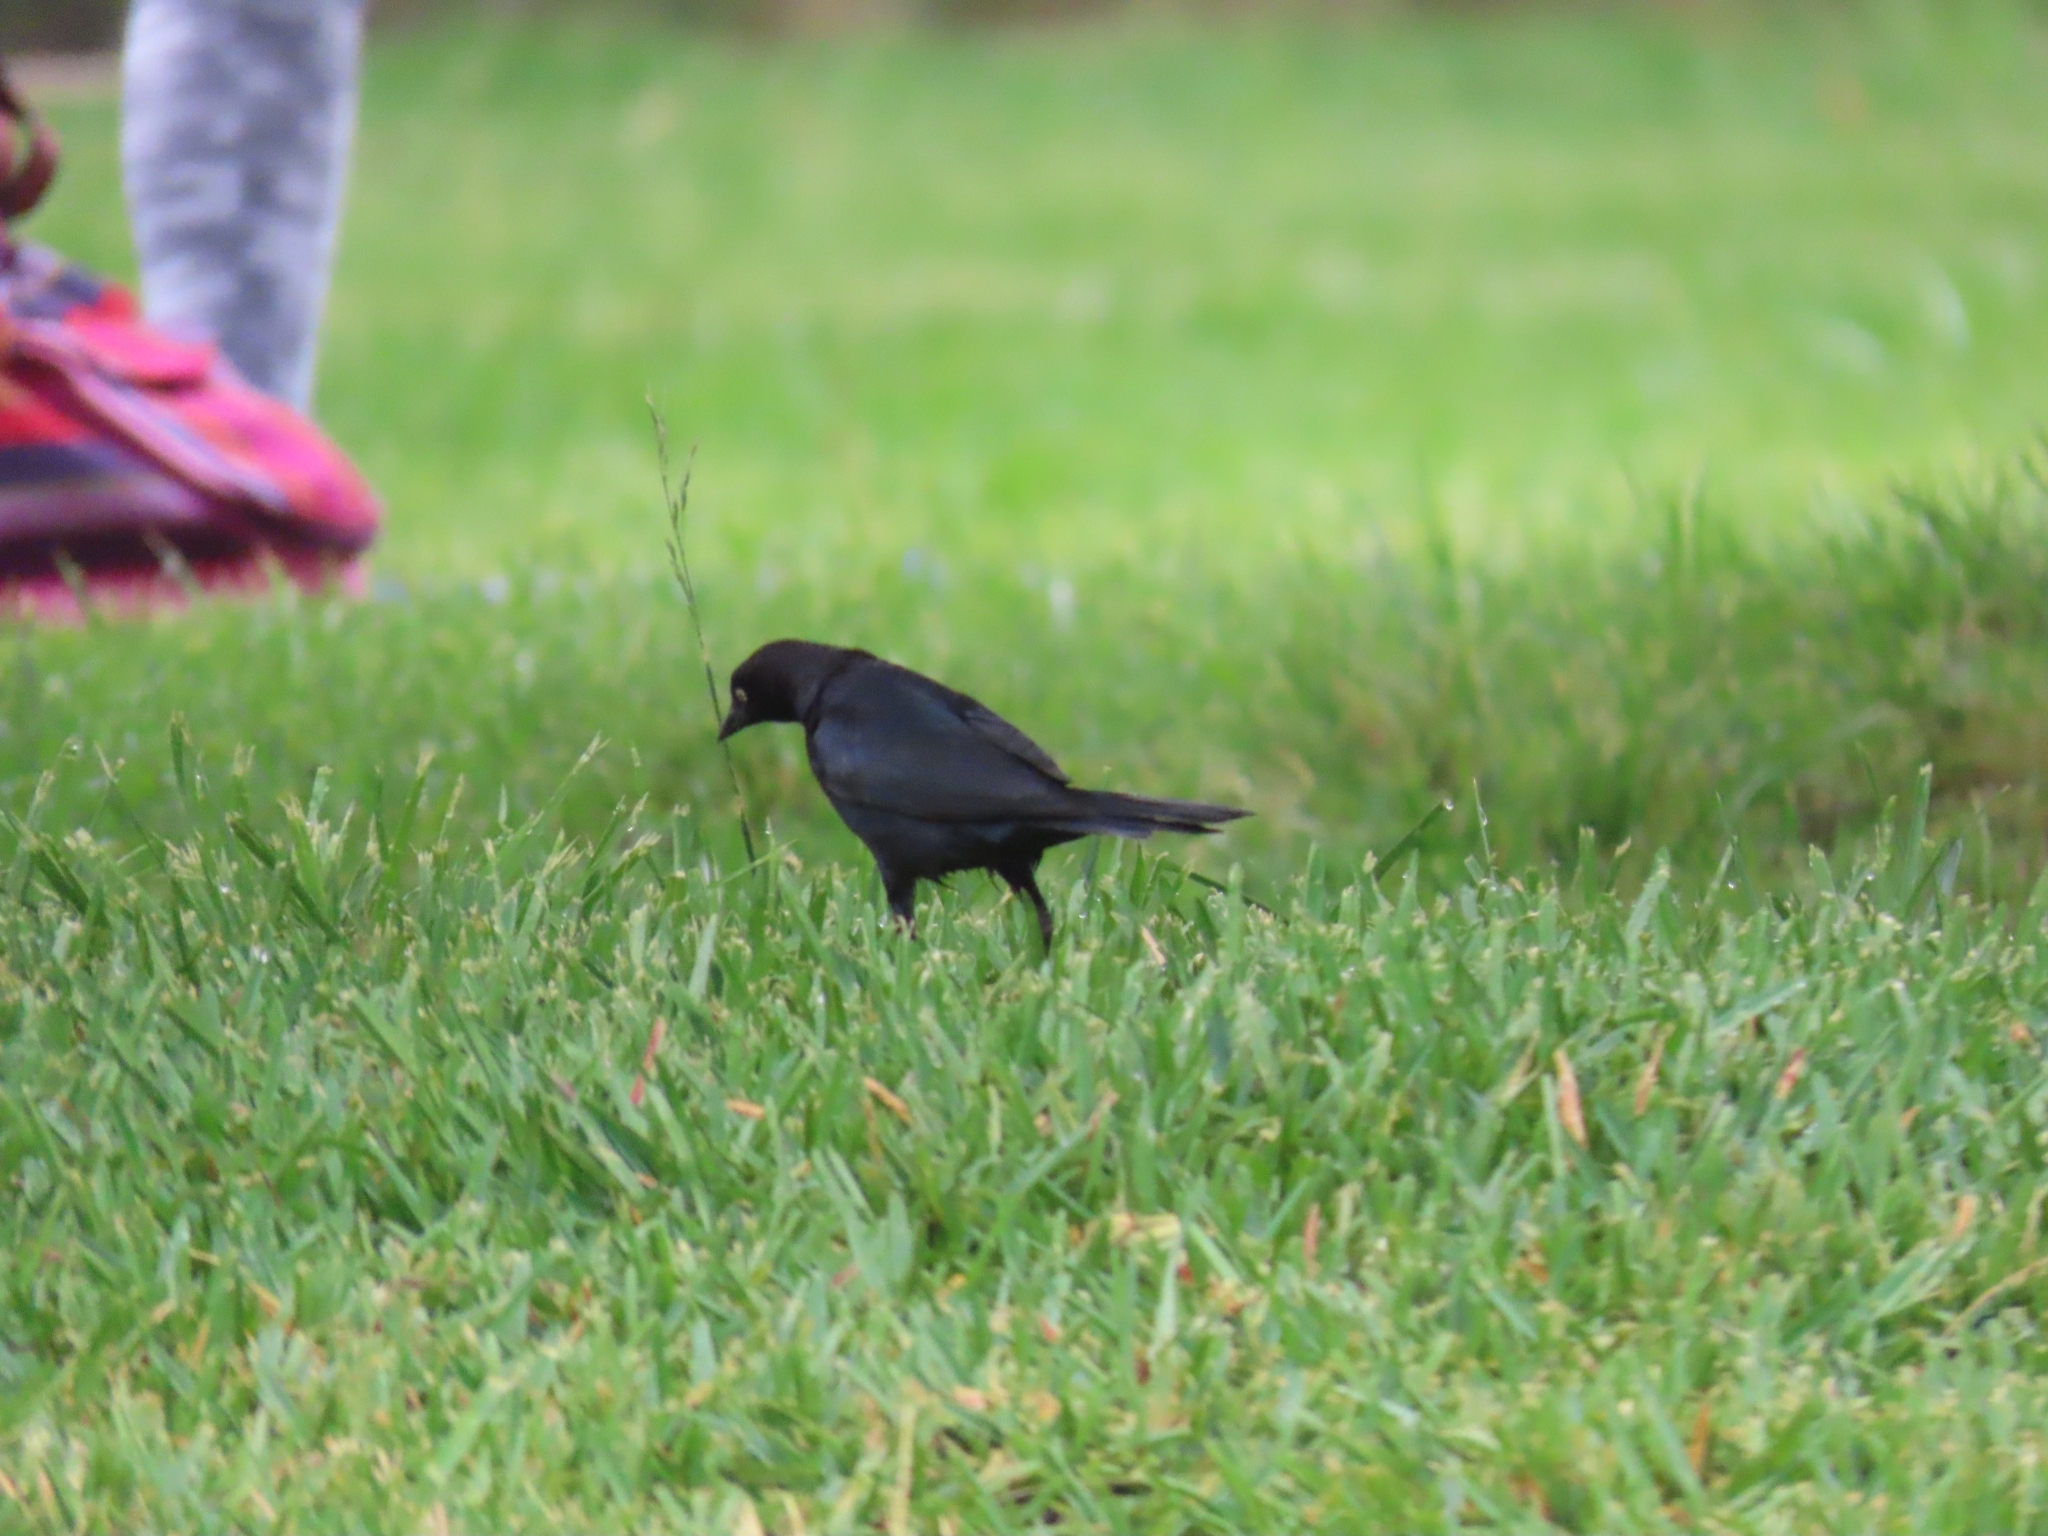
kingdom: Animalia
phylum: Chordata
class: Aves
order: Passeriformes
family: Icteridae
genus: Euphagus
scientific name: Euphagus cyanocephalus
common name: Brewer's blackbird
